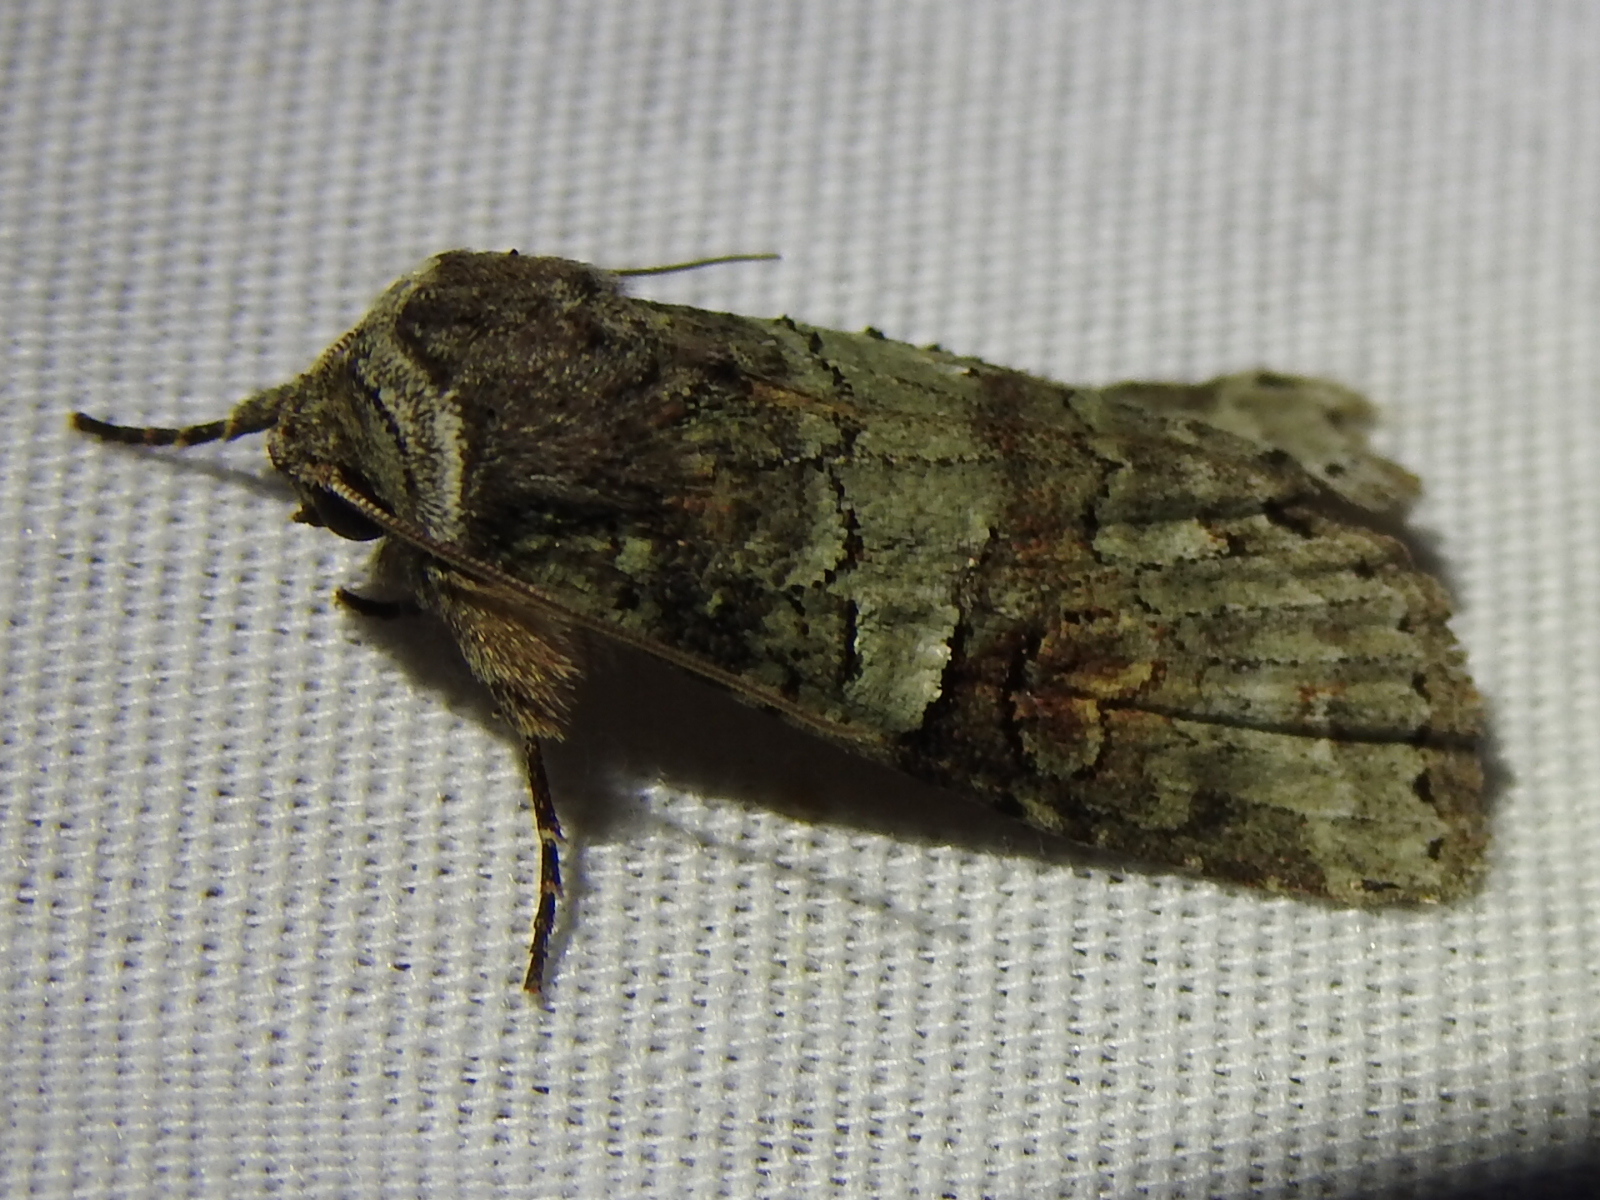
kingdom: Animalia
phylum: Arthropoda
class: Insecta
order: Lepidoptera
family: Noctuidae
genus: Egira
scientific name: Egira alternans
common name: Alternate woodling
